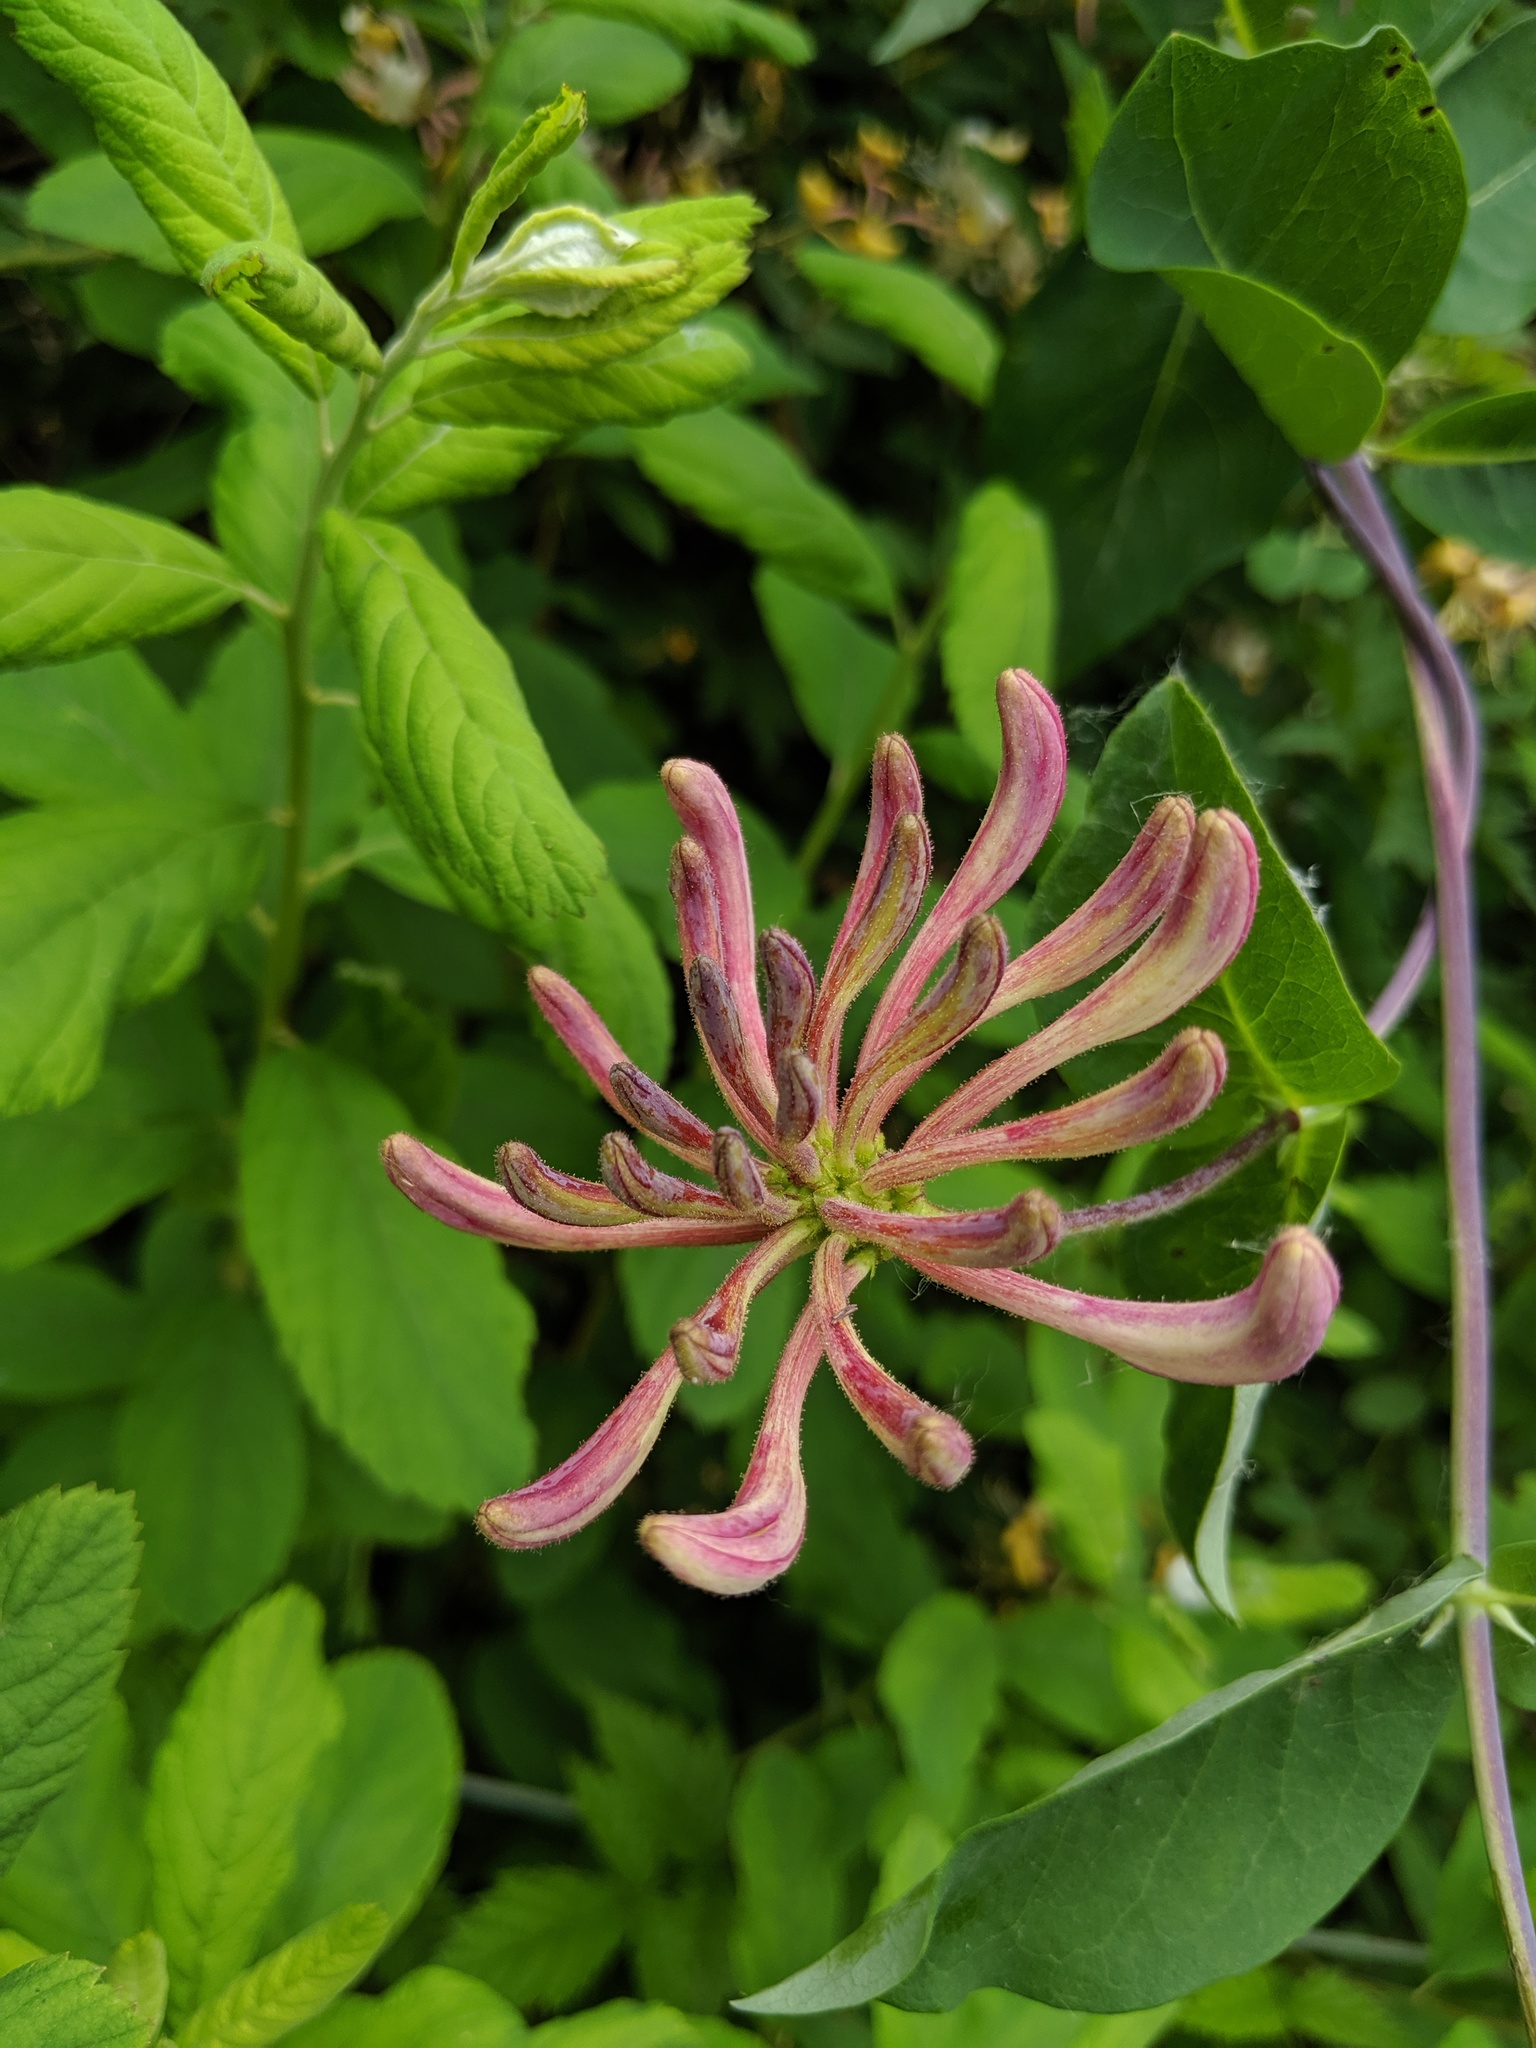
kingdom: Plantae
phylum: Tracheophyta
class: Magnoliopsida
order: Dipsacales
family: Caprifoliaceae
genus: Lonicera
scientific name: Lonicera periclymenum
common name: European honeysuckle
